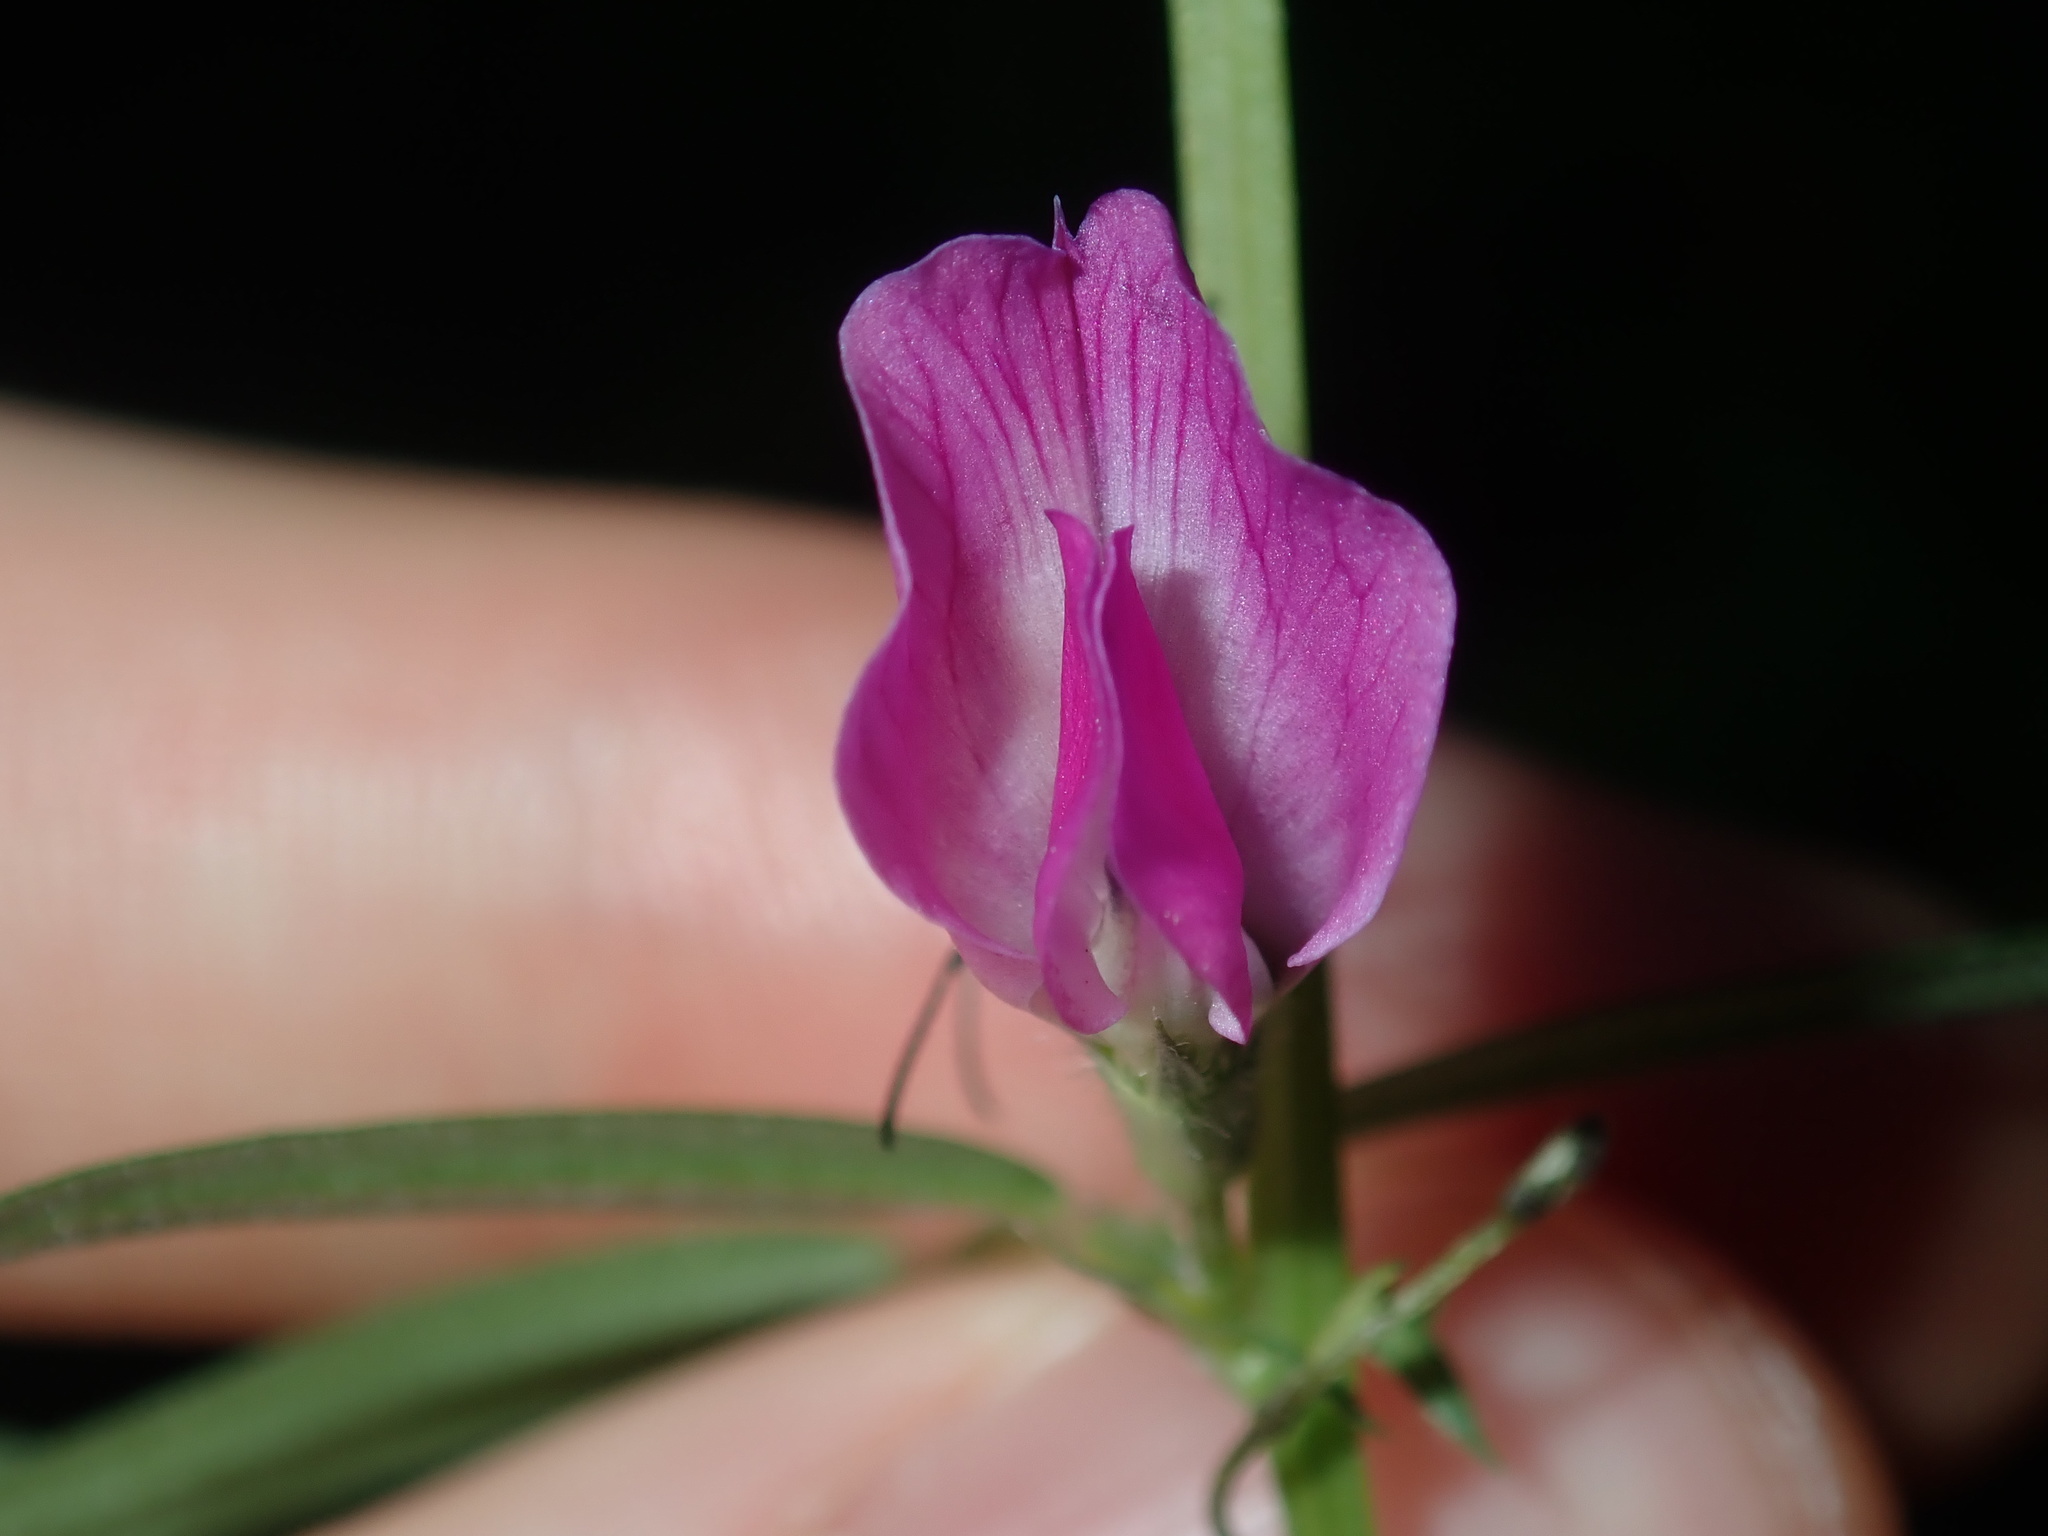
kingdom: Plantae
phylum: Tracheophyta
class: Magnoliopsida
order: Fabales
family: Fabaceae
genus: Vicia
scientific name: Vicia sativa
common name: Garden vetch
